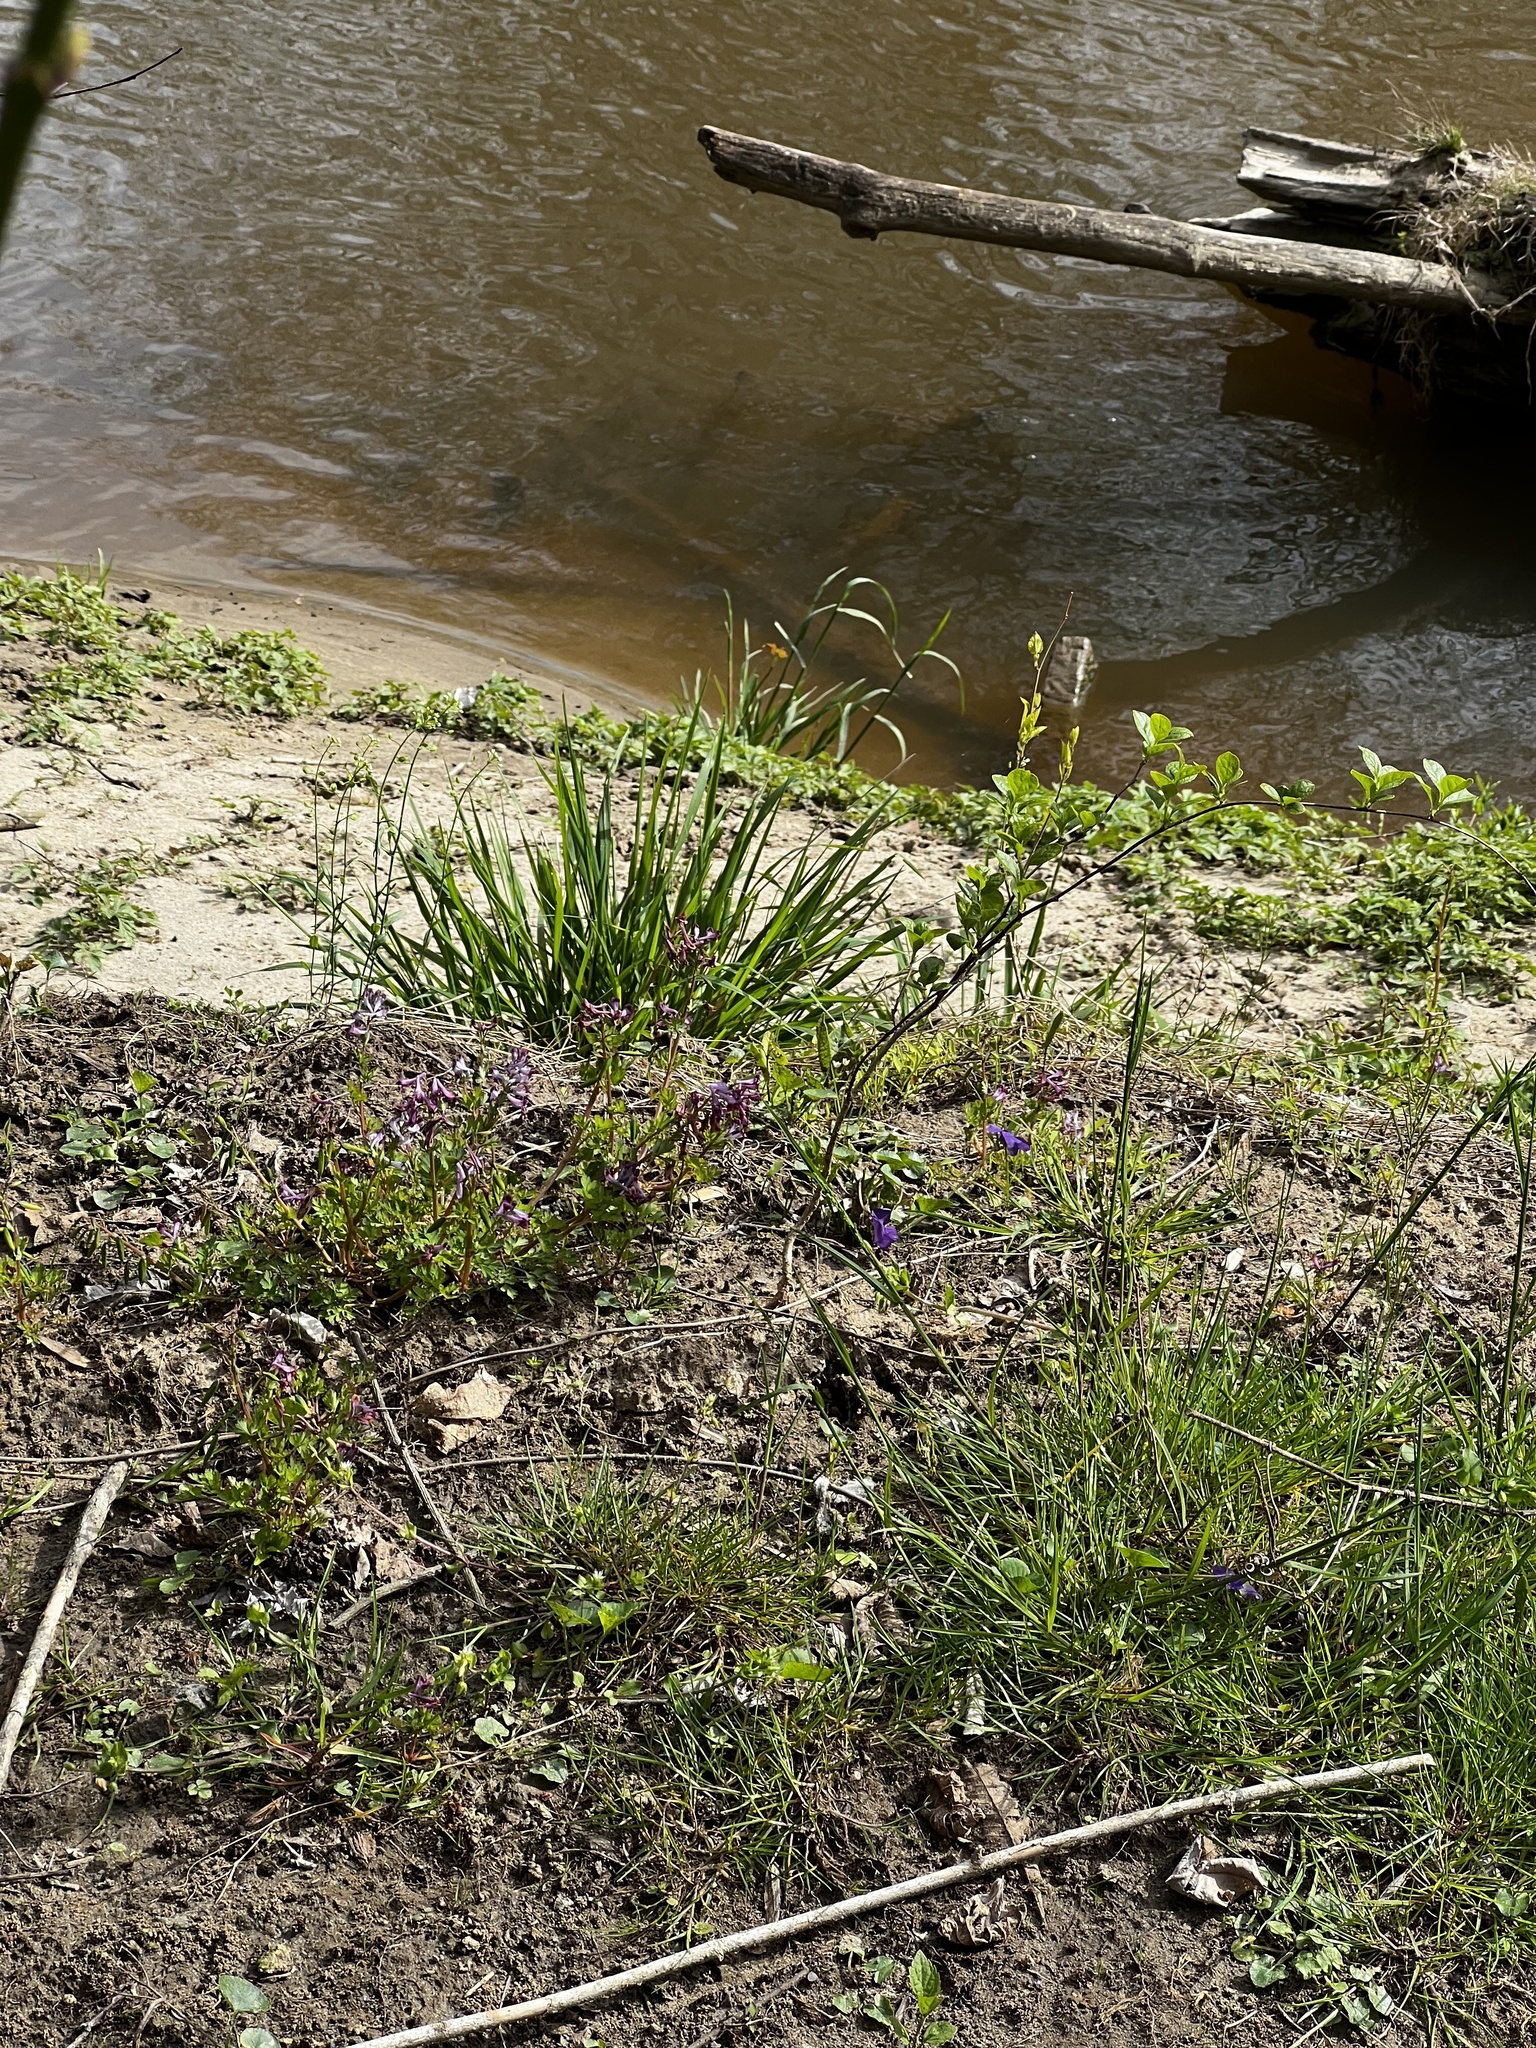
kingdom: Plantae
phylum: Tracheophyta
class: Magnoliopsida
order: Ranunculales
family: Papaveraceae
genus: Corydalis
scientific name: Corydalis incisa
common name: Incised fumewort
